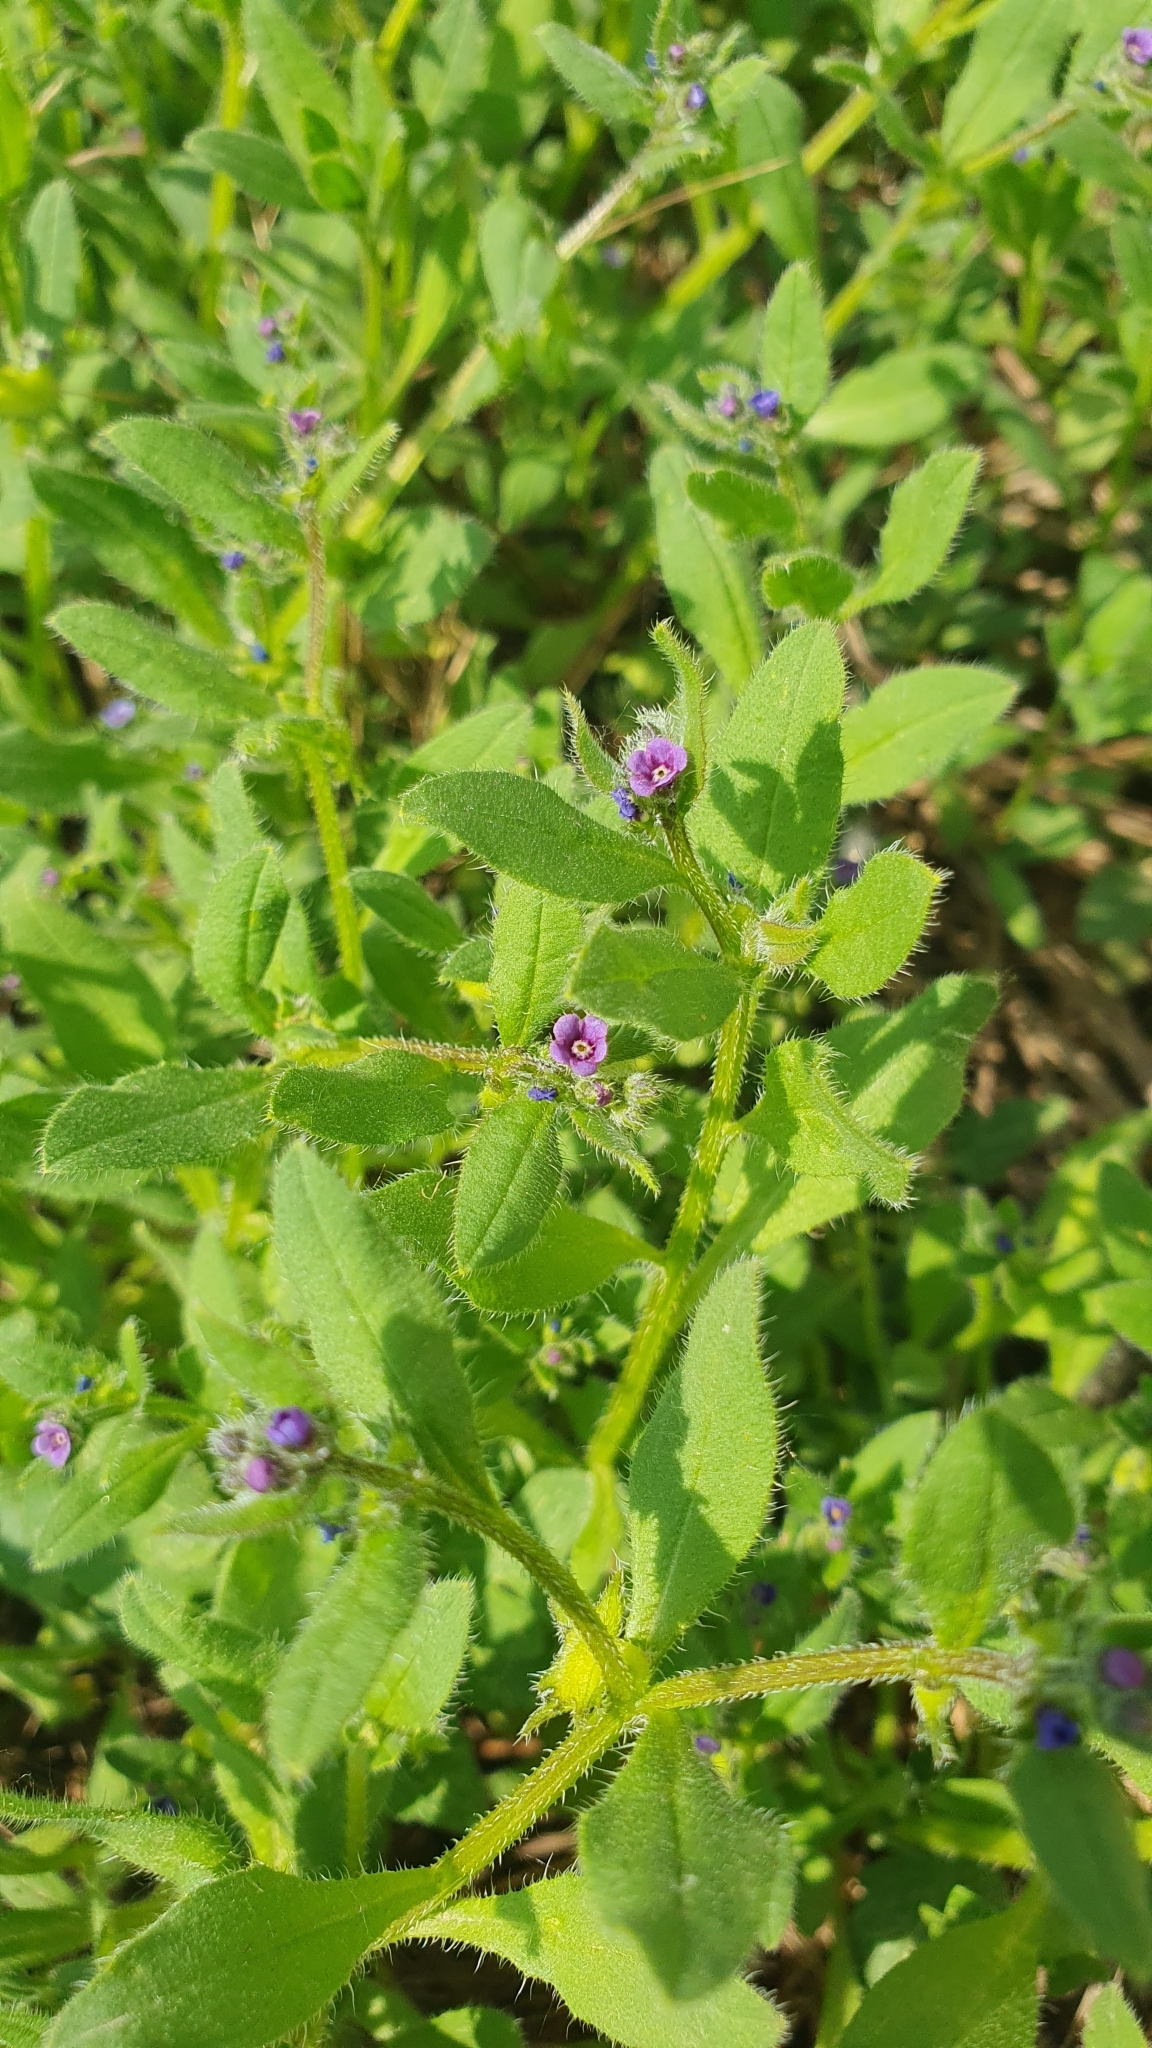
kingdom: Plantae
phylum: Tracheophyta
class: Magnoliopsida
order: Boraginales
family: Boraginaceae
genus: Asperugo
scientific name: Asperugo procumbens
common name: Madwort
